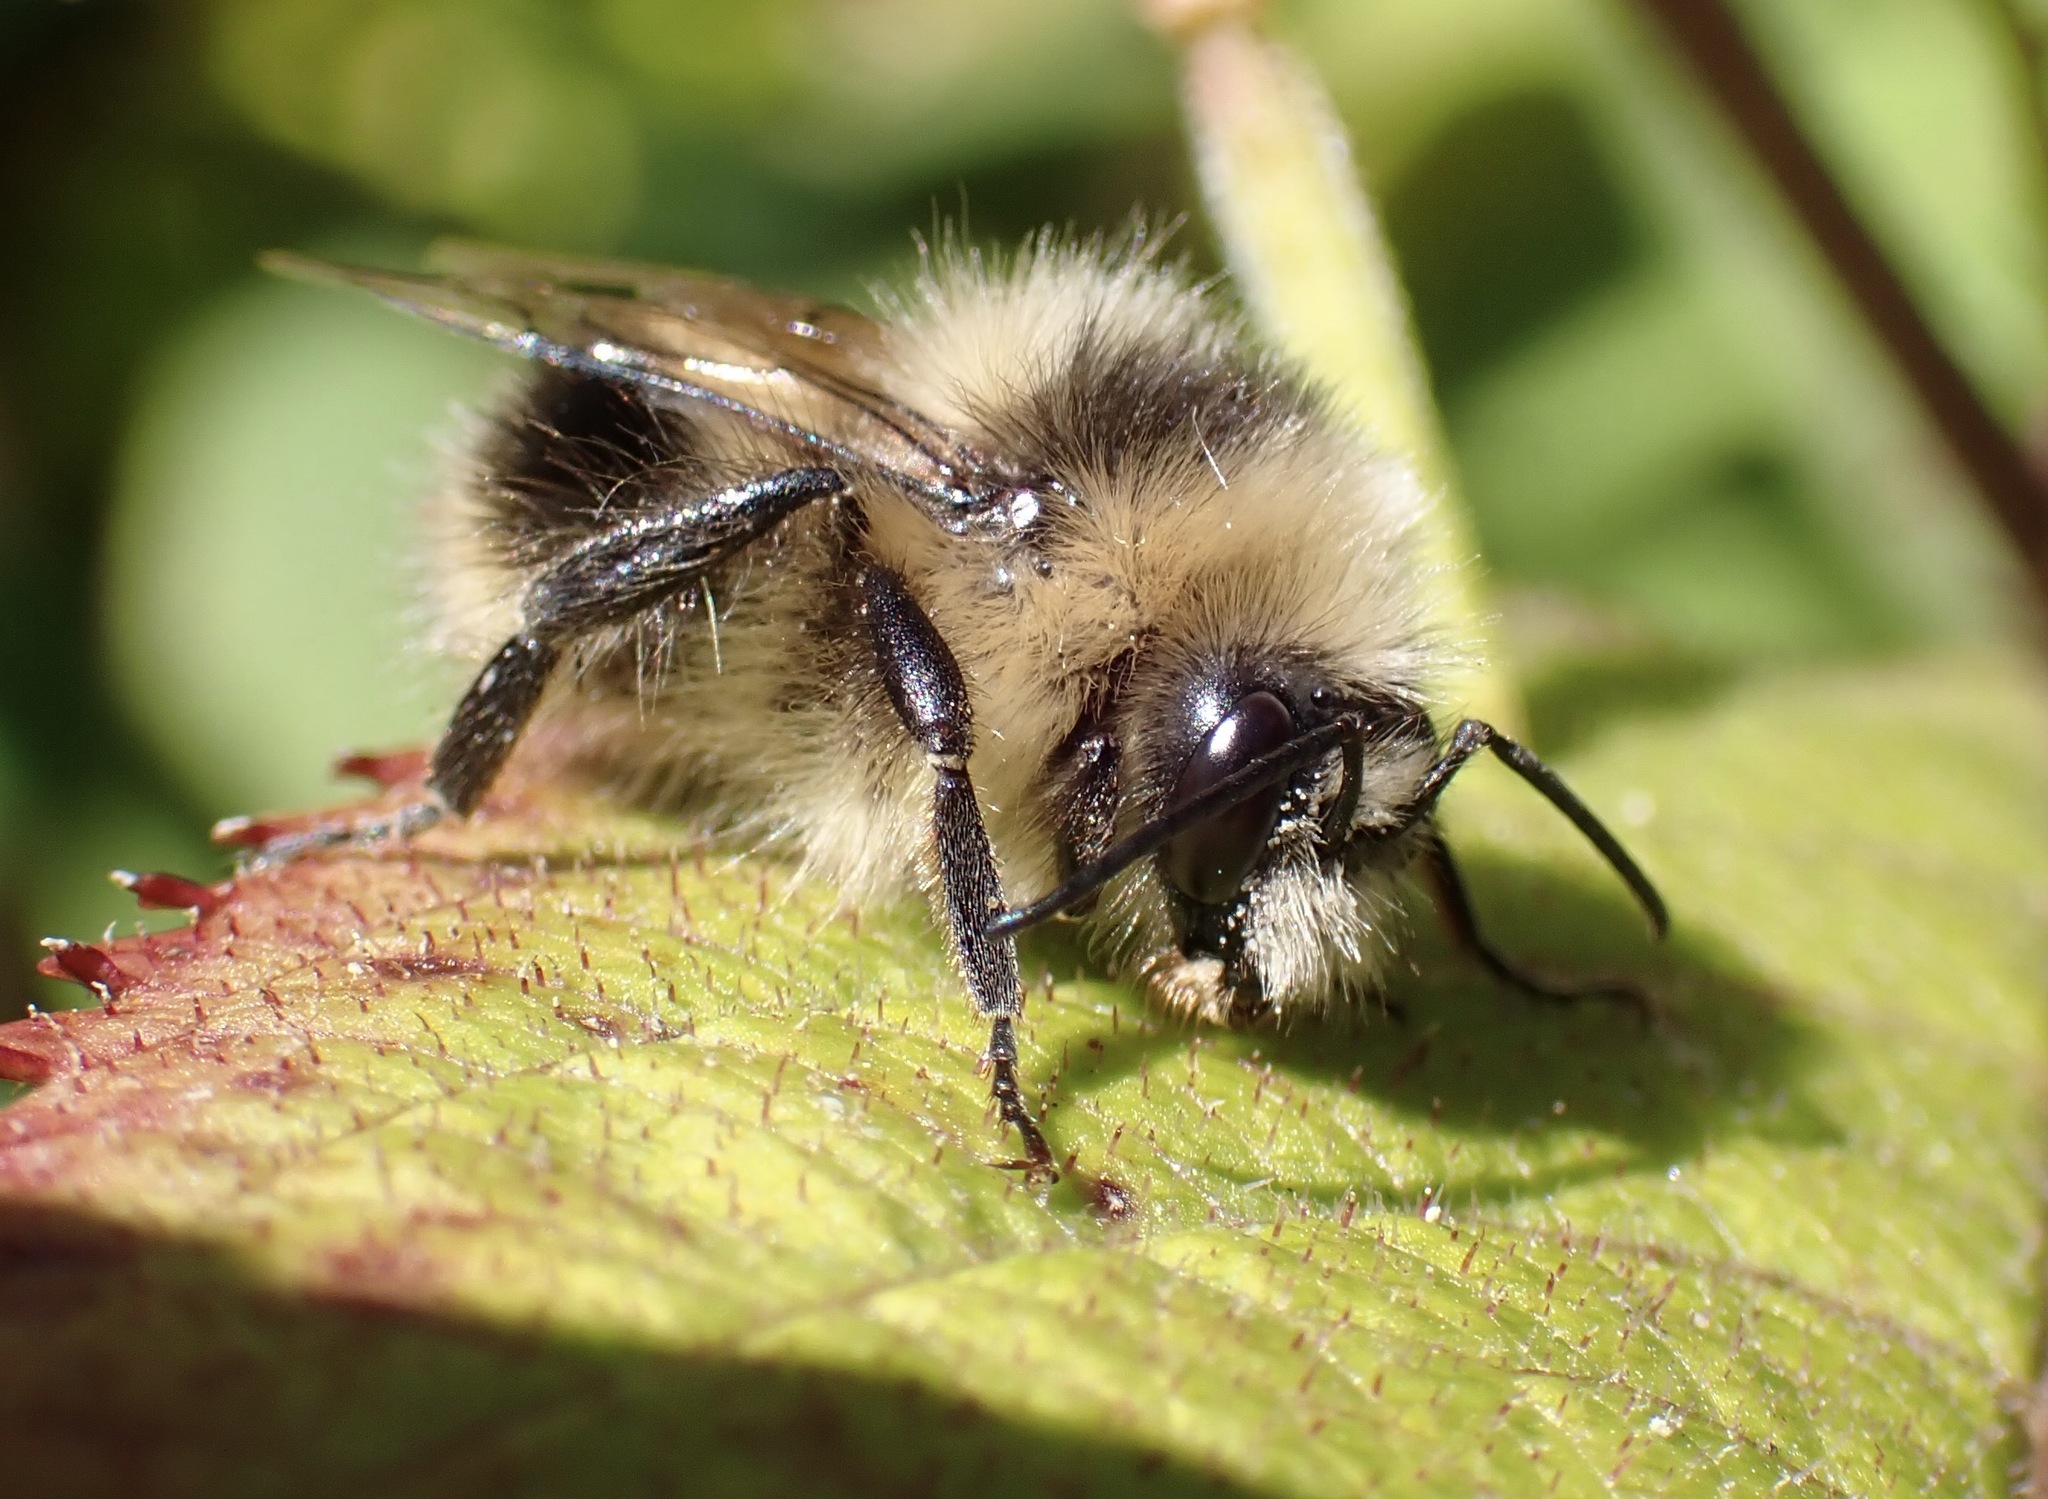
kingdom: Animalia
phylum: Arthropoda
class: Insecta
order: Hymenoptera
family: Apidae
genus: Bombus
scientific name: Bombus melanopygus
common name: Black tail bumble bee
